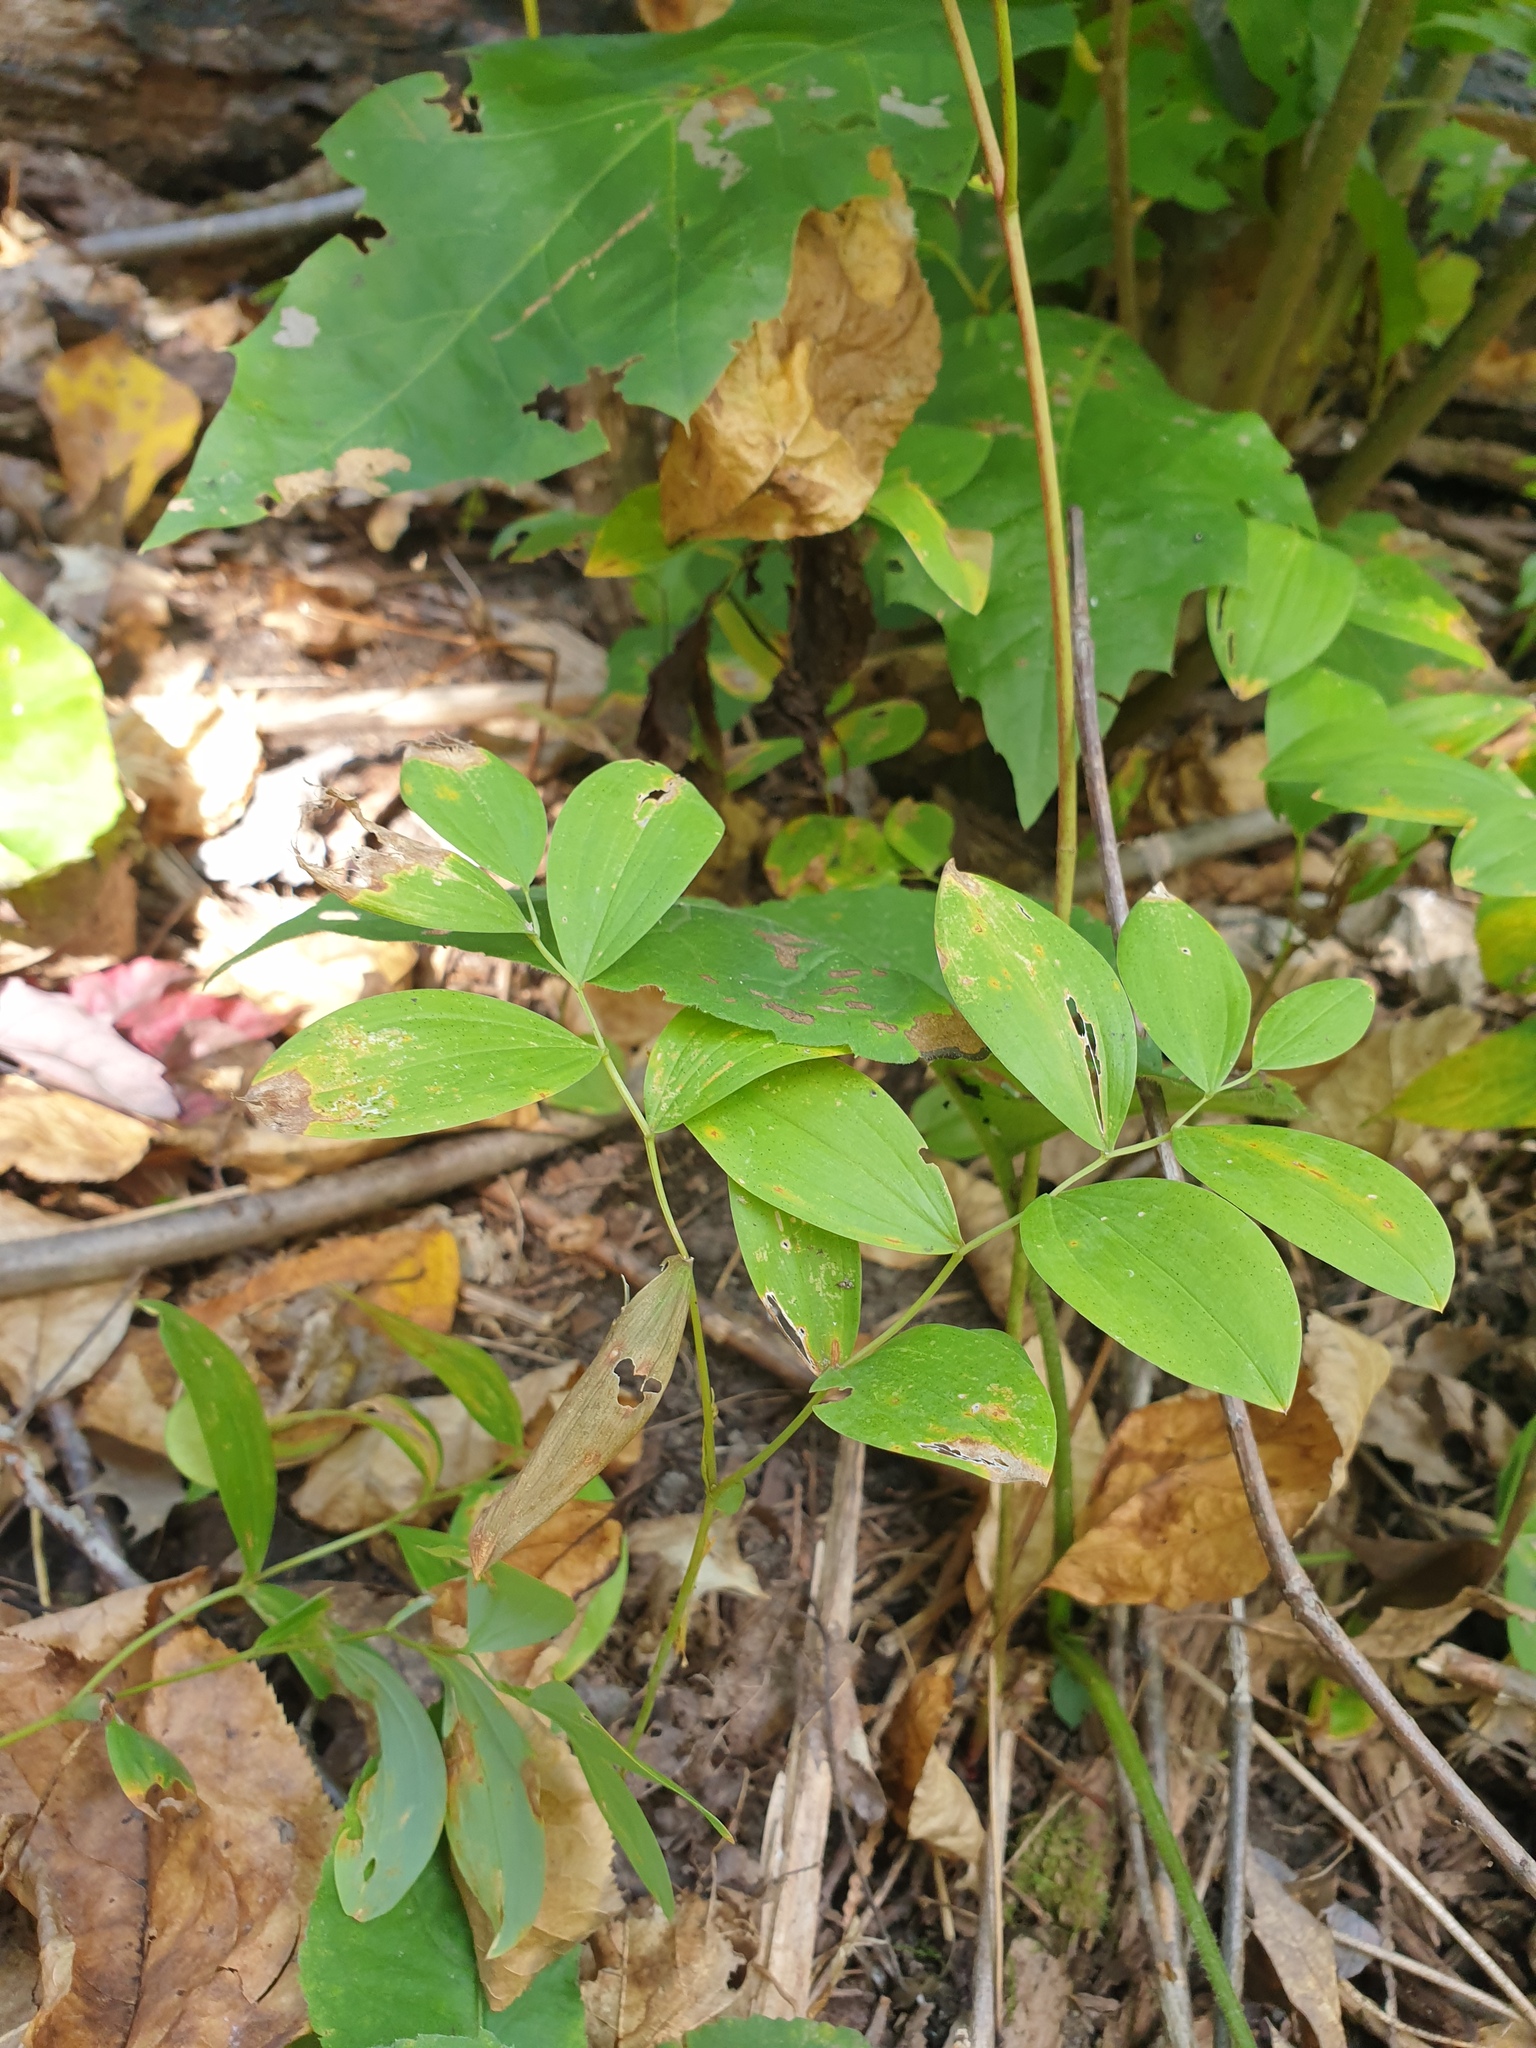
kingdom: Plantae
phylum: Tracheophyta
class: Liliopsida
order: Liliales
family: Colchicaceae
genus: Uvularia
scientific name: Uvularia sessilifolia
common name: Straw-lily
